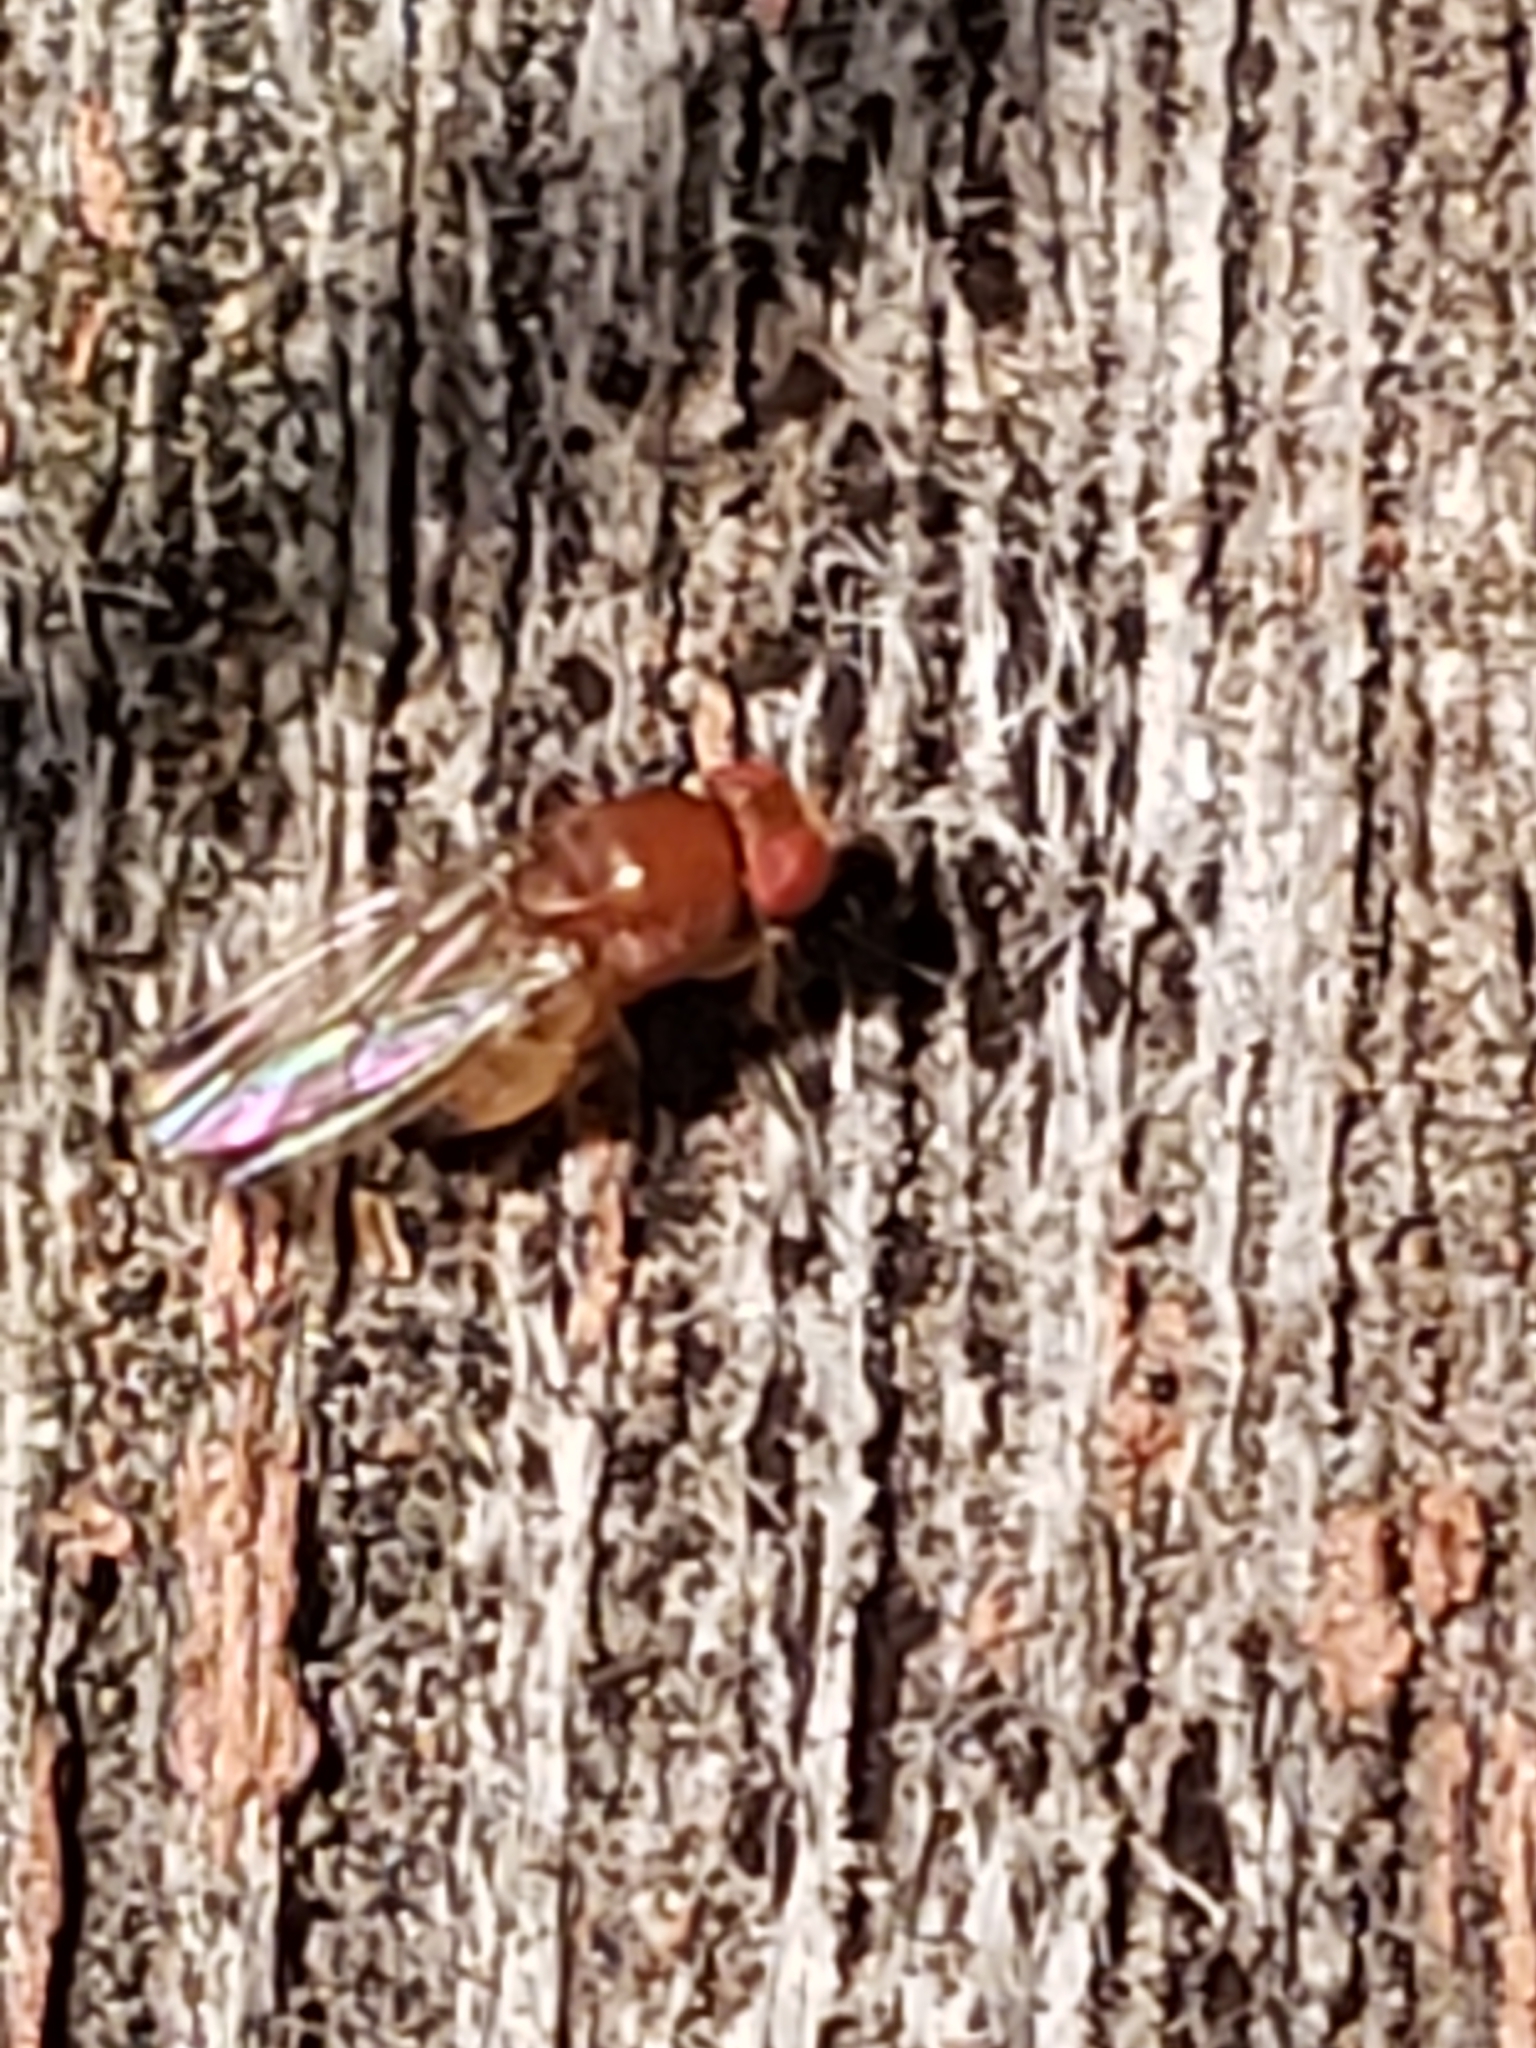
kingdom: Animalia
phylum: Arthropoda
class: Insecta
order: Diptera
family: Drosophilidae
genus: Drosophila
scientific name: Drosophila suzukii
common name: Spotted-wing drosophila
